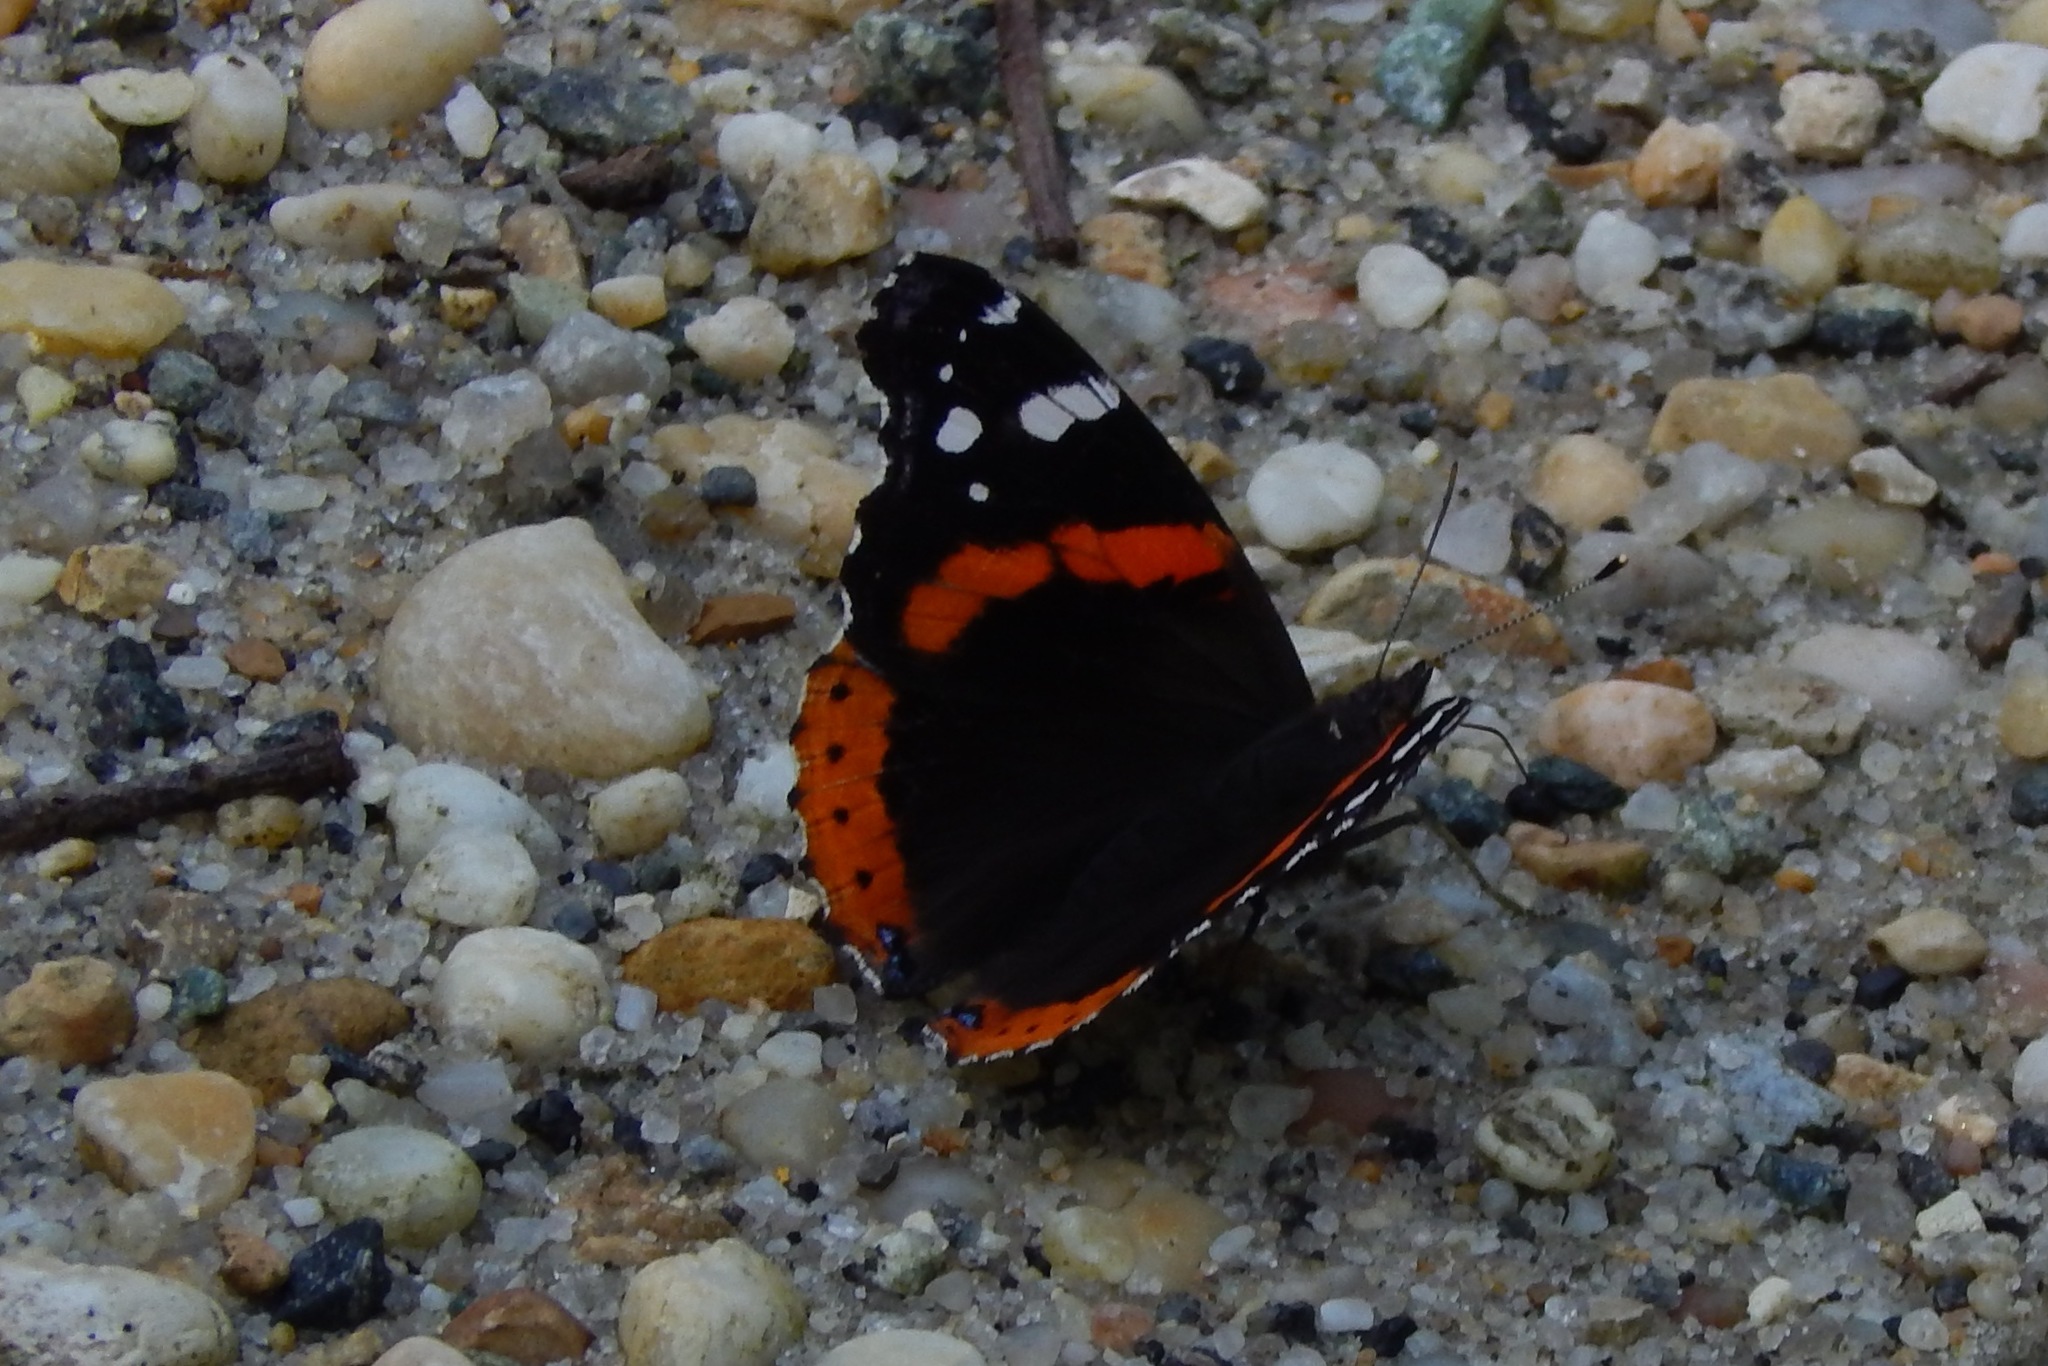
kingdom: Animalia
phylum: Arthropoda
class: Insecta
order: Lepidoptera
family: Nymphalidae
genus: Vanessa
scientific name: Vanessa atalanta
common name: Red admiral
